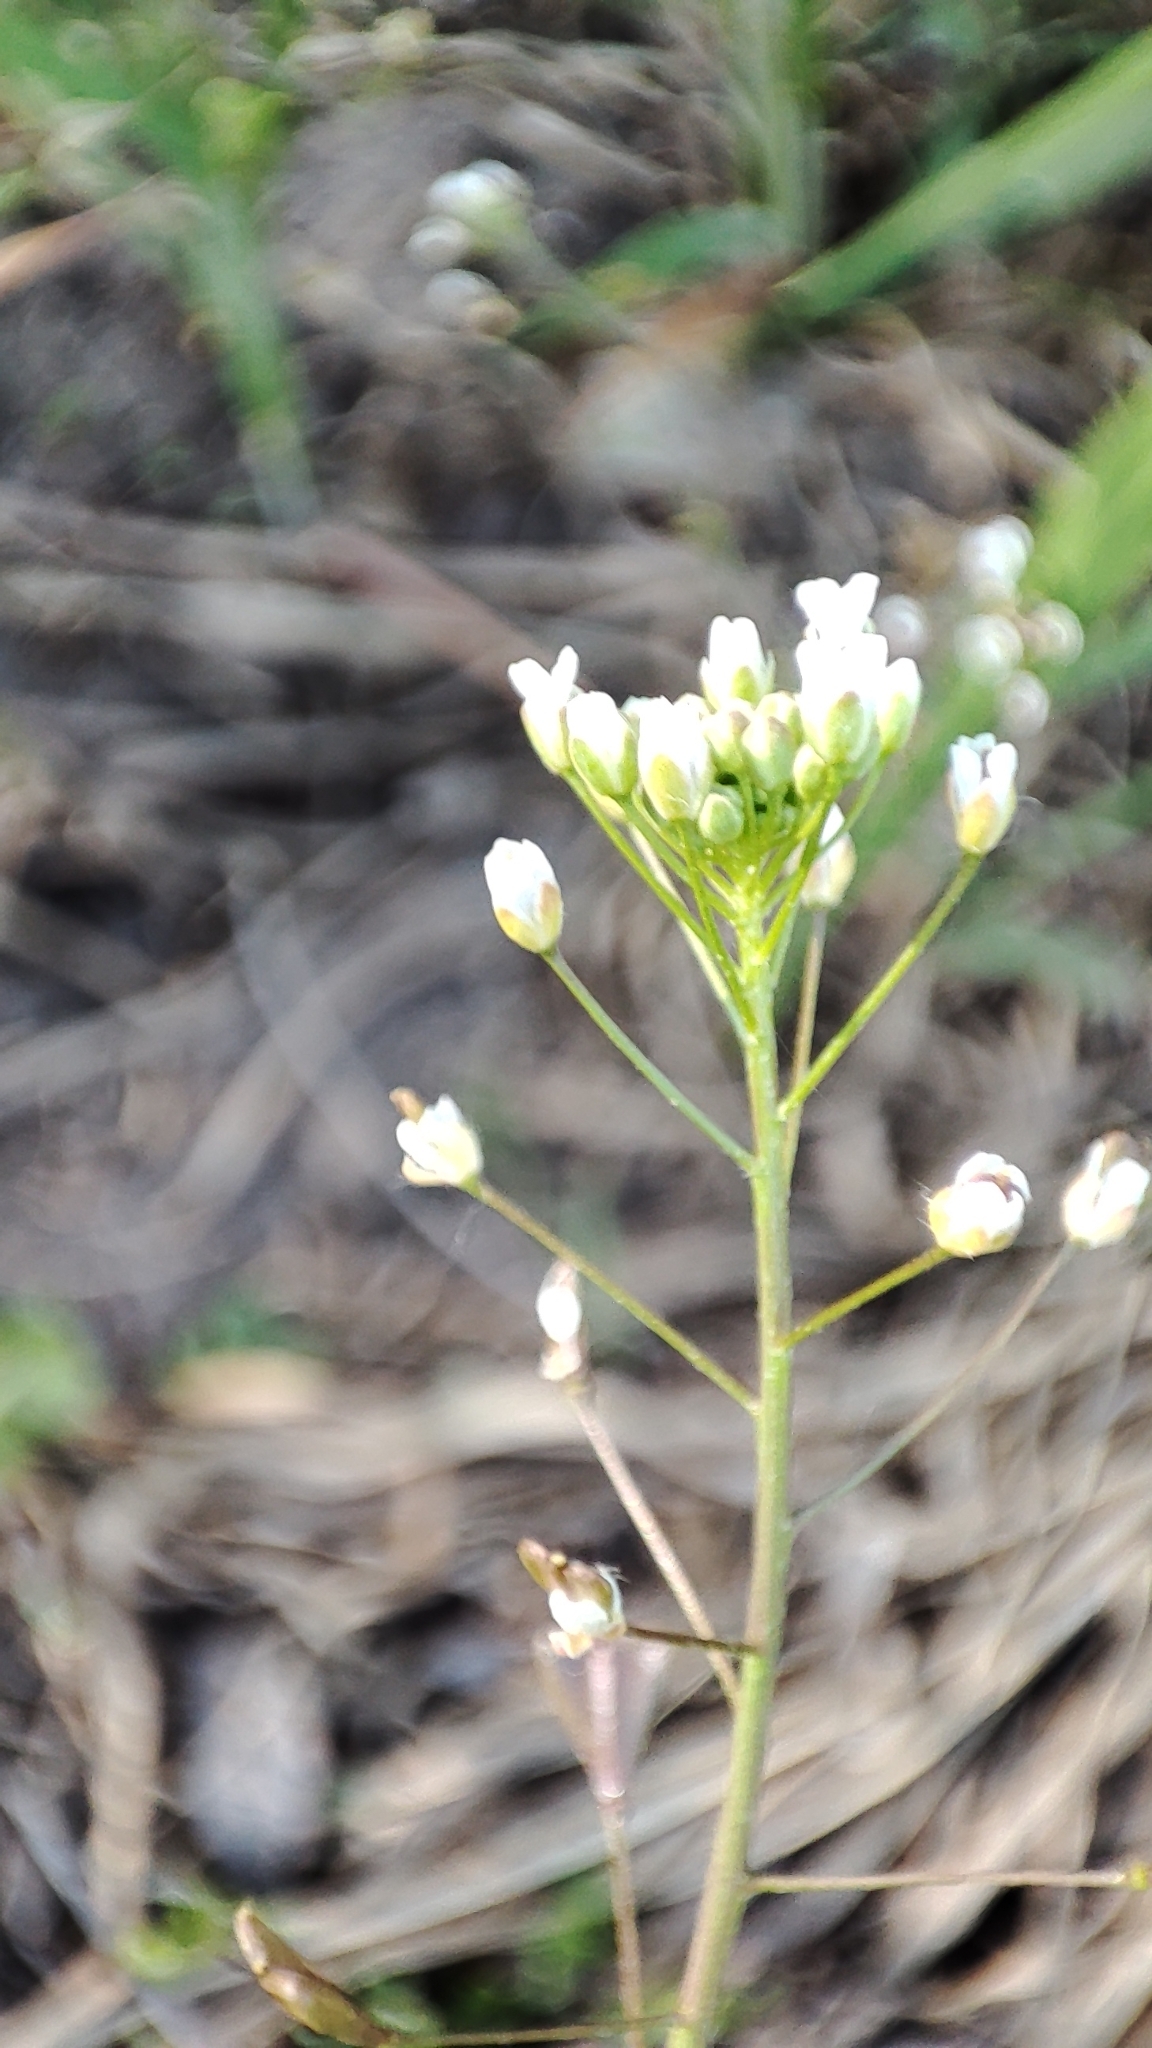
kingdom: Plantae
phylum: Tracheophyta
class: Magnoliopsida
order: Brassicales
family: Brassicaceae
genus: Capsella
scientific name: Capsella bursa-pastoris
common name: Shepherd's purse
